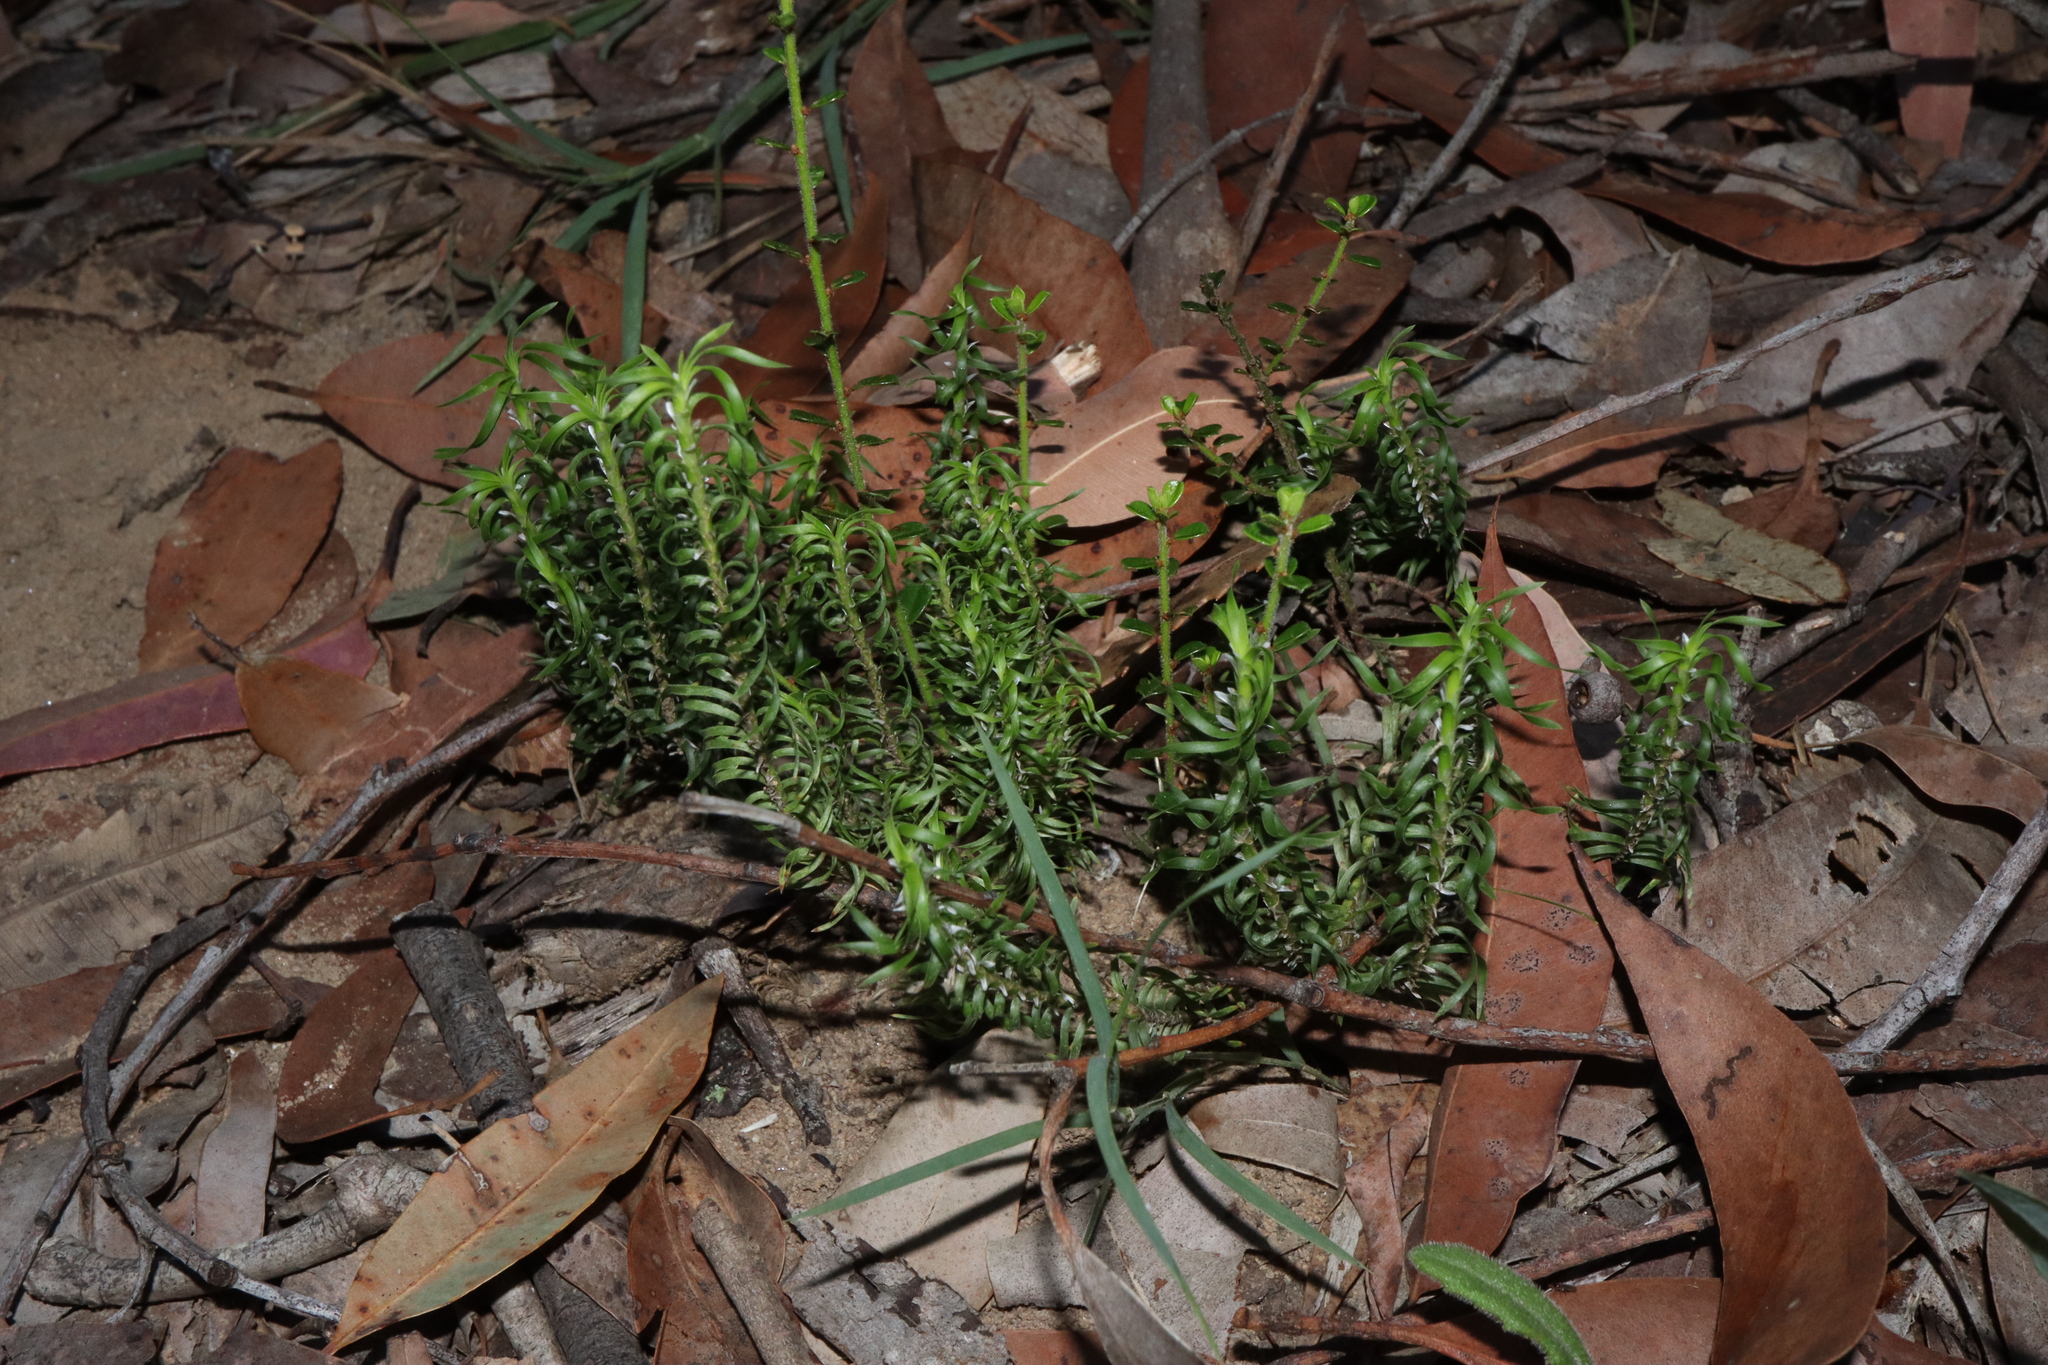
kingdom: Plantae
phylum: Tracheophyta
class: Liliopsida
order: Asparagales
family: Asparagaceae
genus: Lomandra
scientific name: Lomandra obliqua
